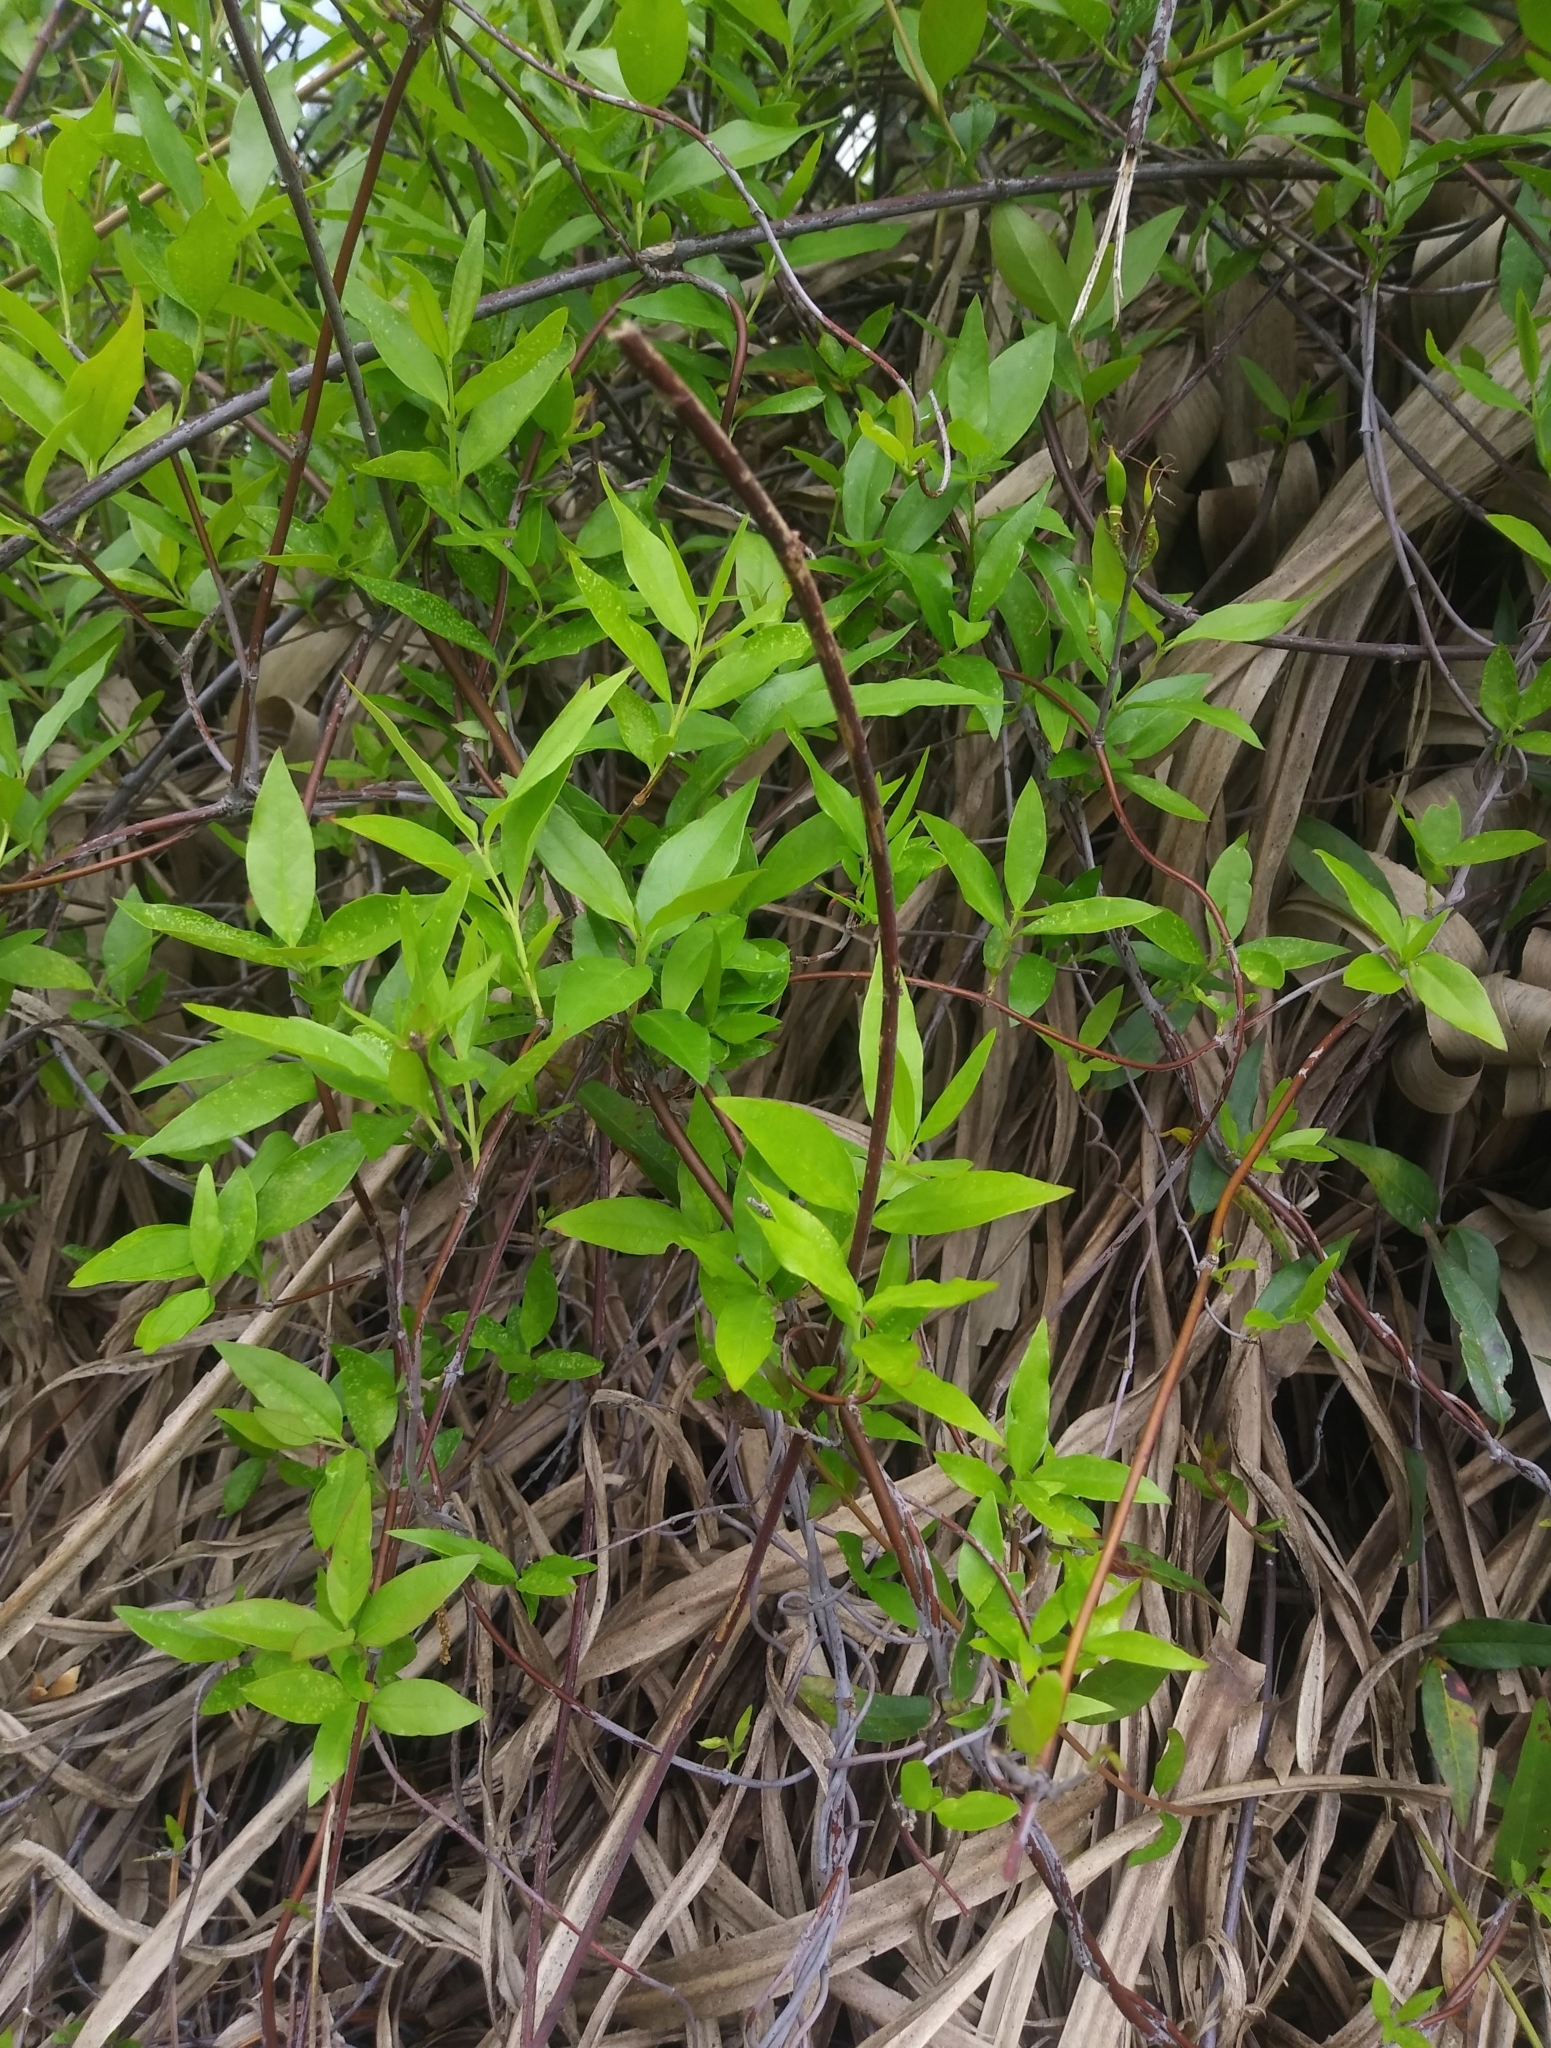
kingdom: Plantae
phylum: Tracheophyta
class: Magnoliopsida
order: Gentianales
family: Gelsemiaceae
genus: Gelsemium
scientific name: Gelsemium sempervirens
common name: Carolina-jasmine
